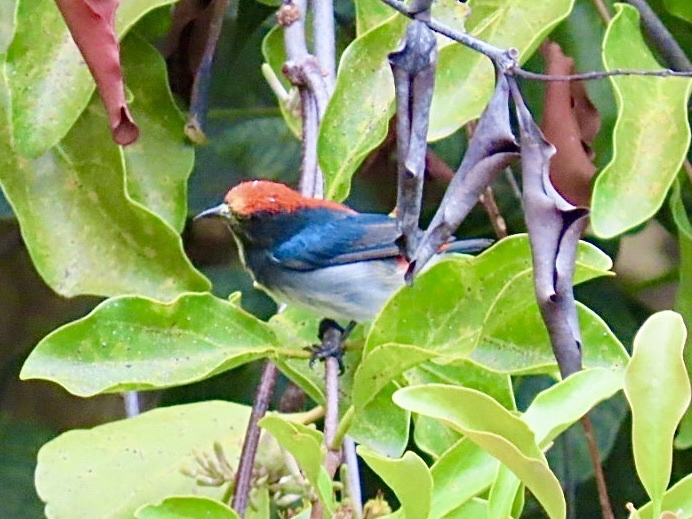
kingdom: Animalia
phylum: Chordata
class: Aves
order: Passeriformes
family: Dicaeidae
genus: Dicaeum
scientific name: Dicaeum cruentatum
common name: Scarlet-backed flowerpecker
